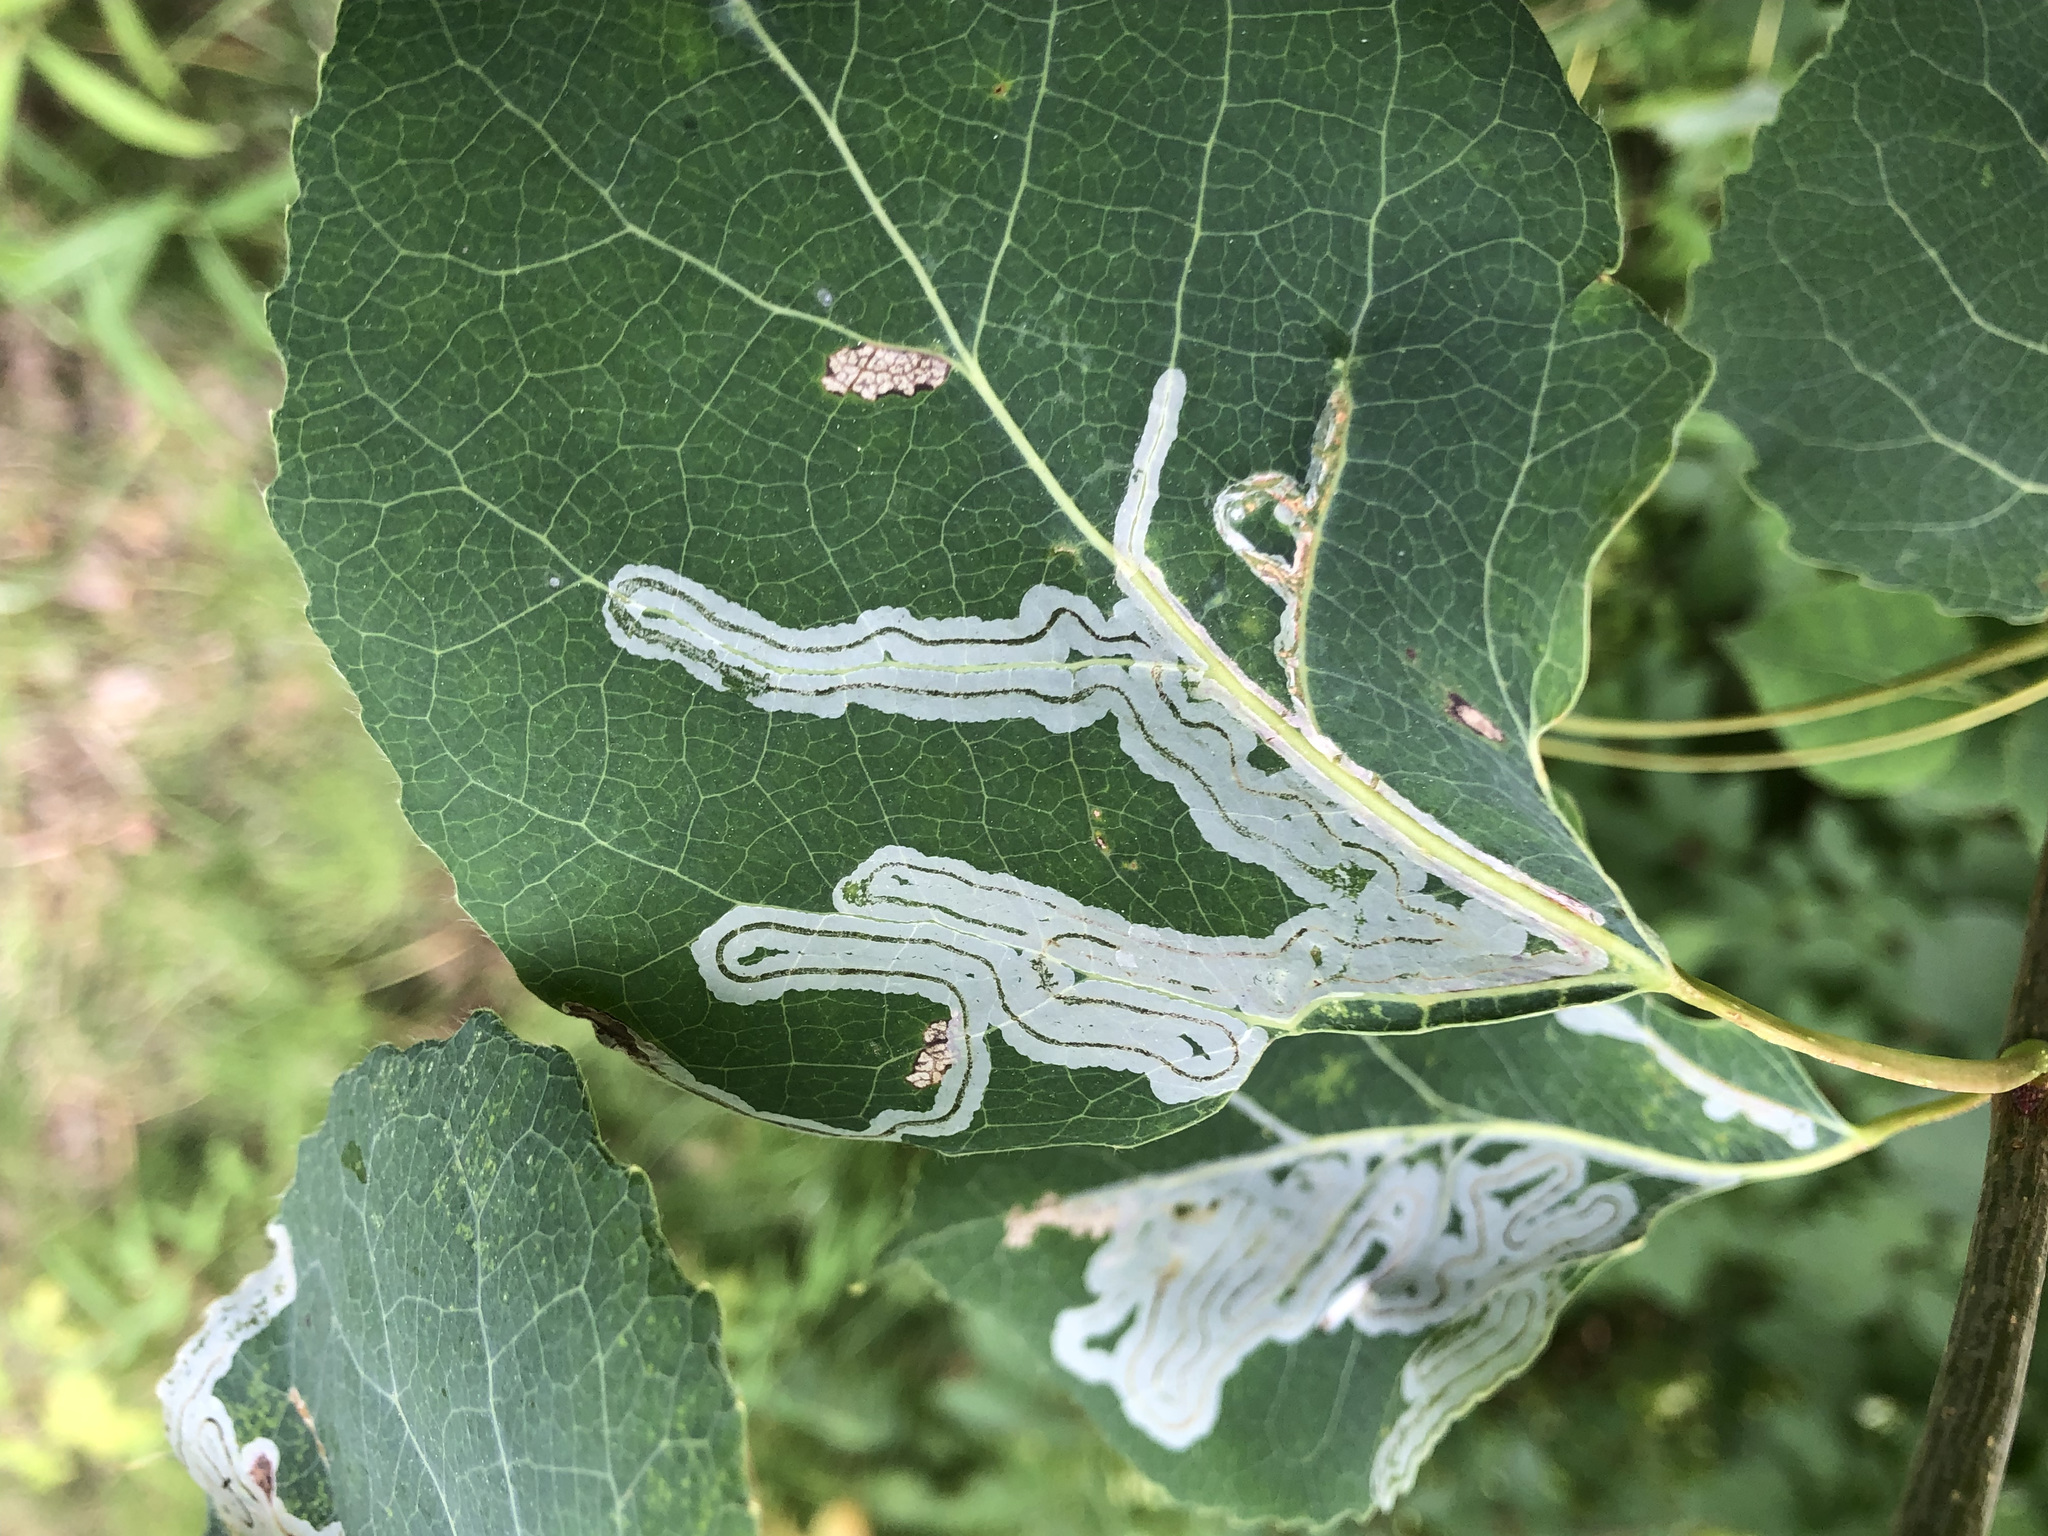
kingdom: Animalia
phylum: Arthropoda
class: Insecta
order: Lepidoptera
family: Gracillariidae
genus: Phyllocnistis
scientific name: Phyllocnistis populiella
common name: Aspen serpentine leafminer moth
